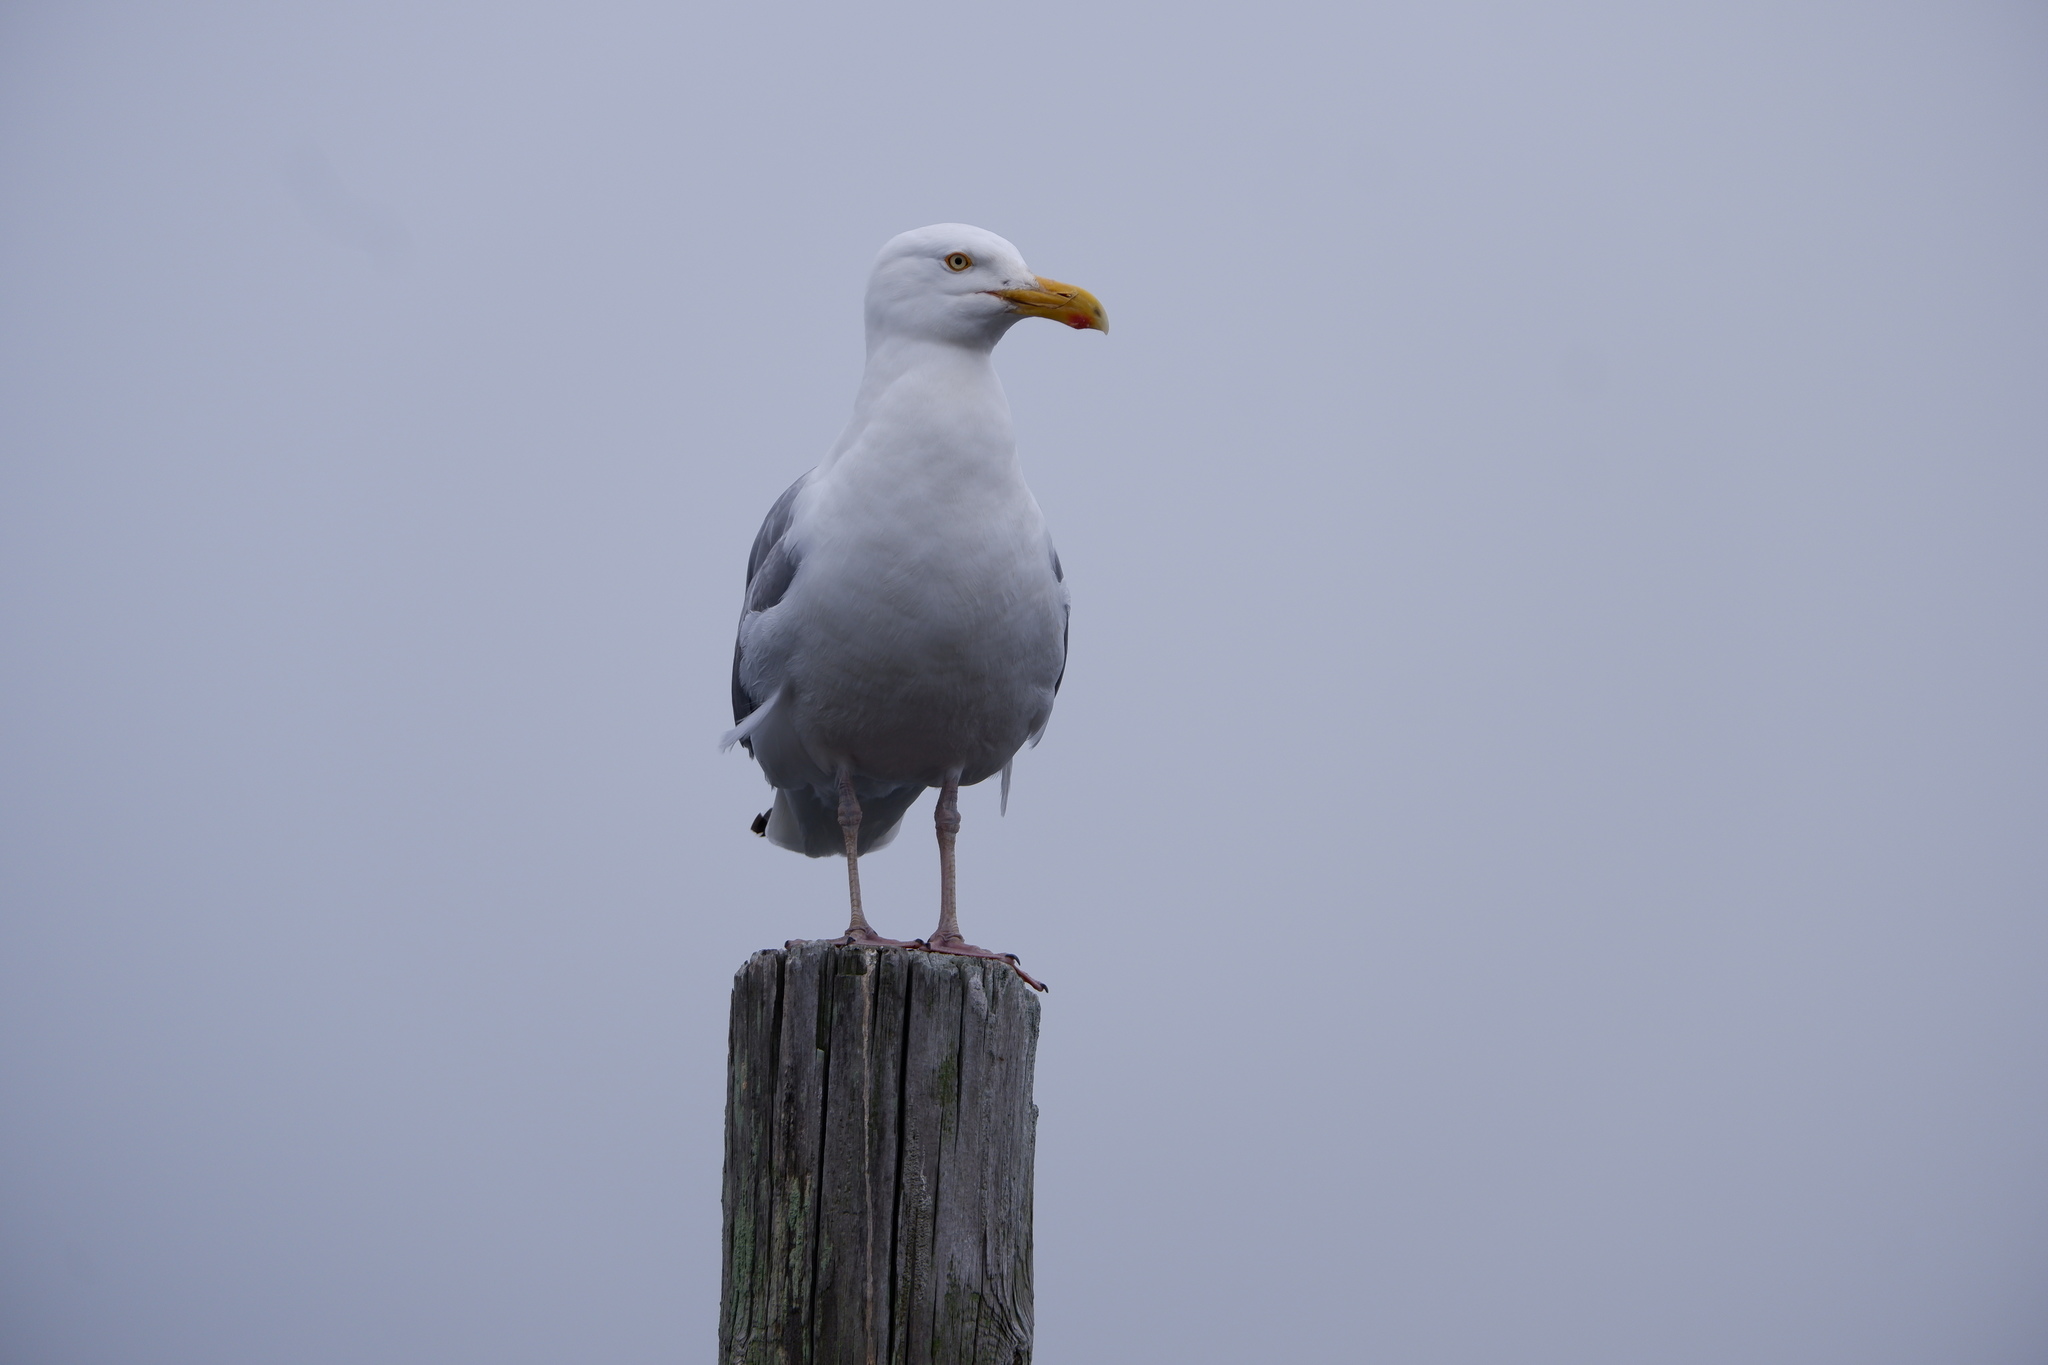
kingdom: Animalia
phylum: Chordata
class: Aves
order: Charadriiformes
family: Laridae
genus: Larus
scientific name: Larus smithsonianus
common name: American herring gull
